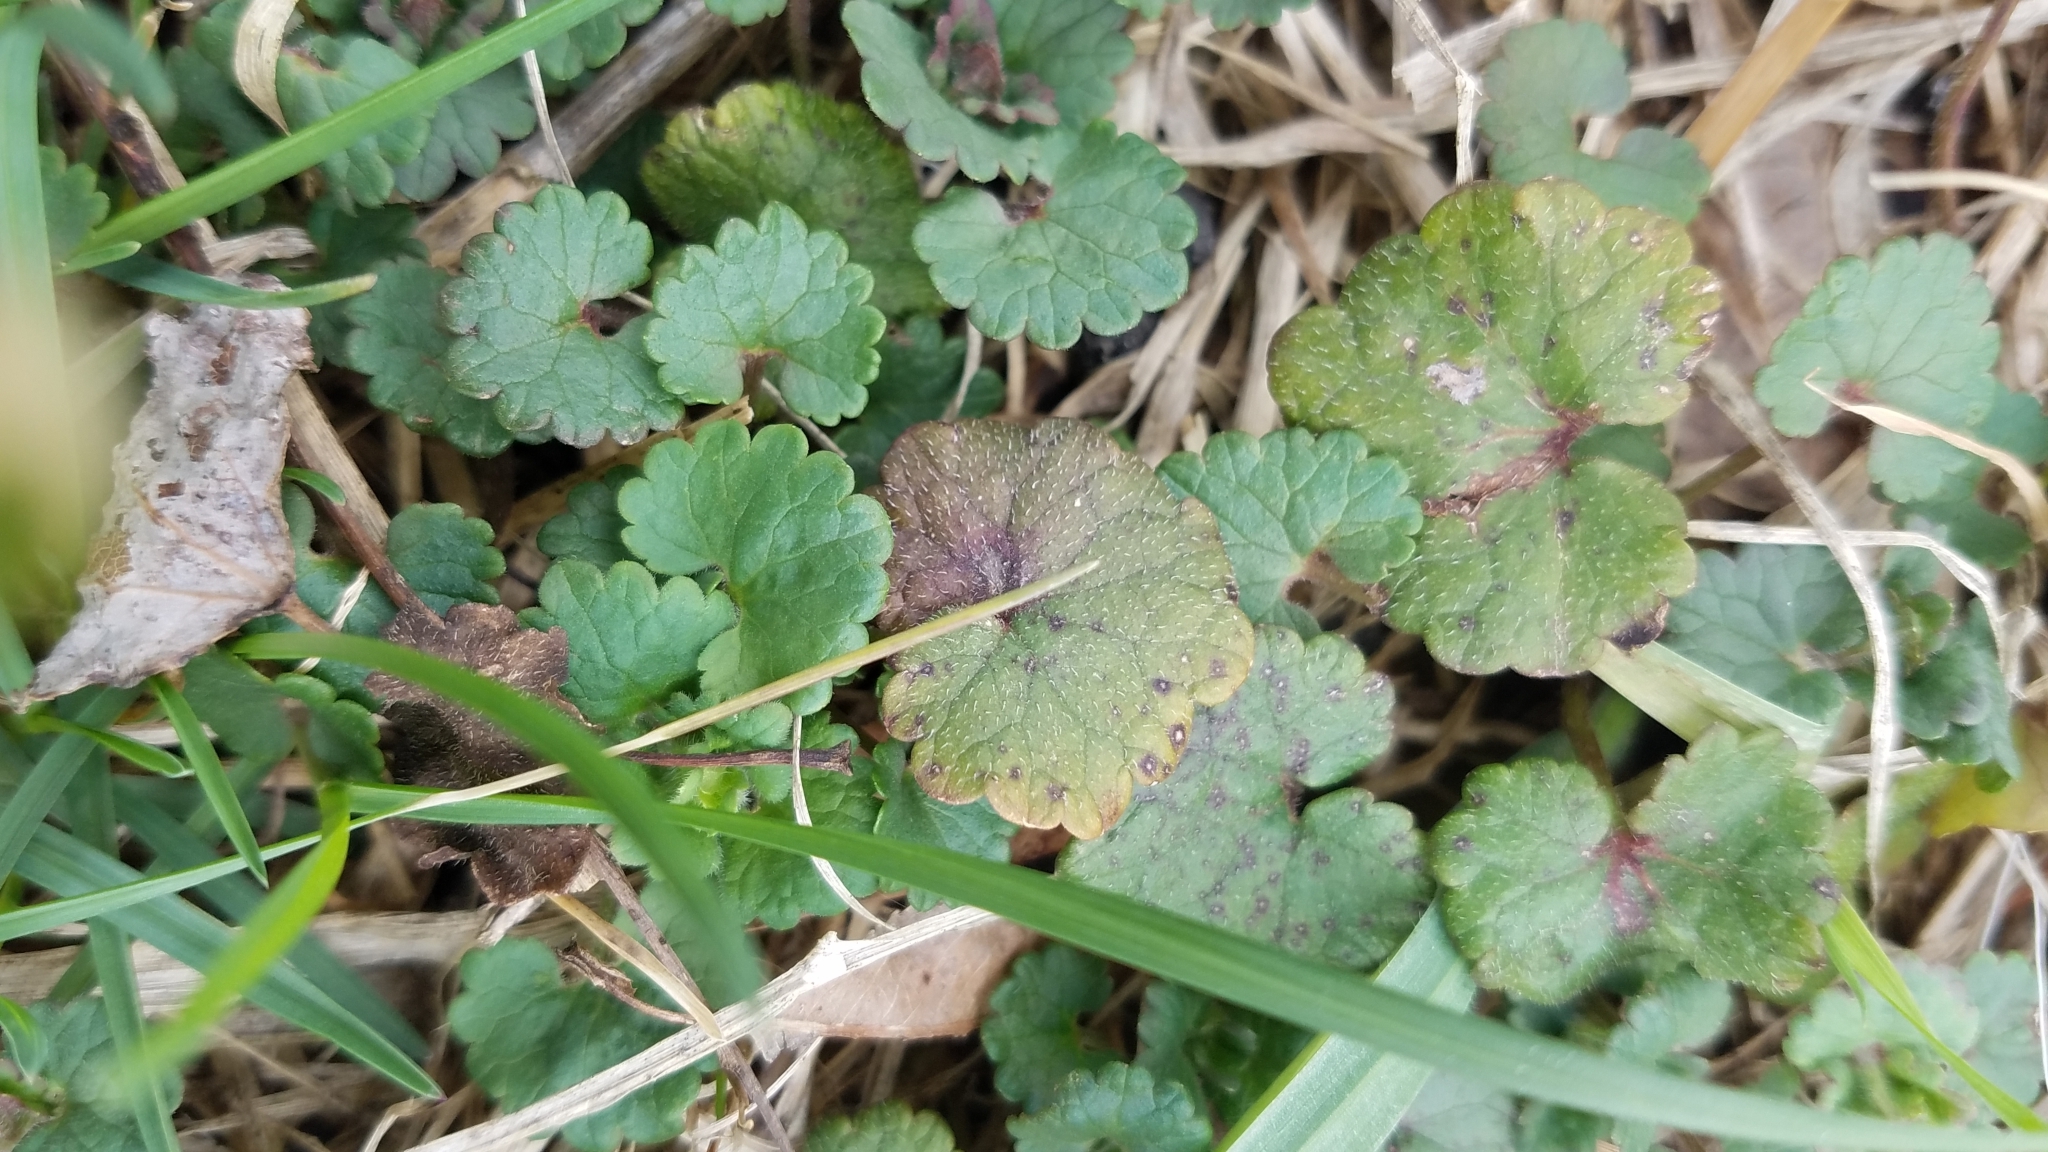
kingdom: Plantae
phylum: Tracheophyta
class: Magnoliopsida
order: Lamiales
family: Lamiaceae
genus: Glechoma
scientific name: Glechoma hederacea
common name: Ground ivy
